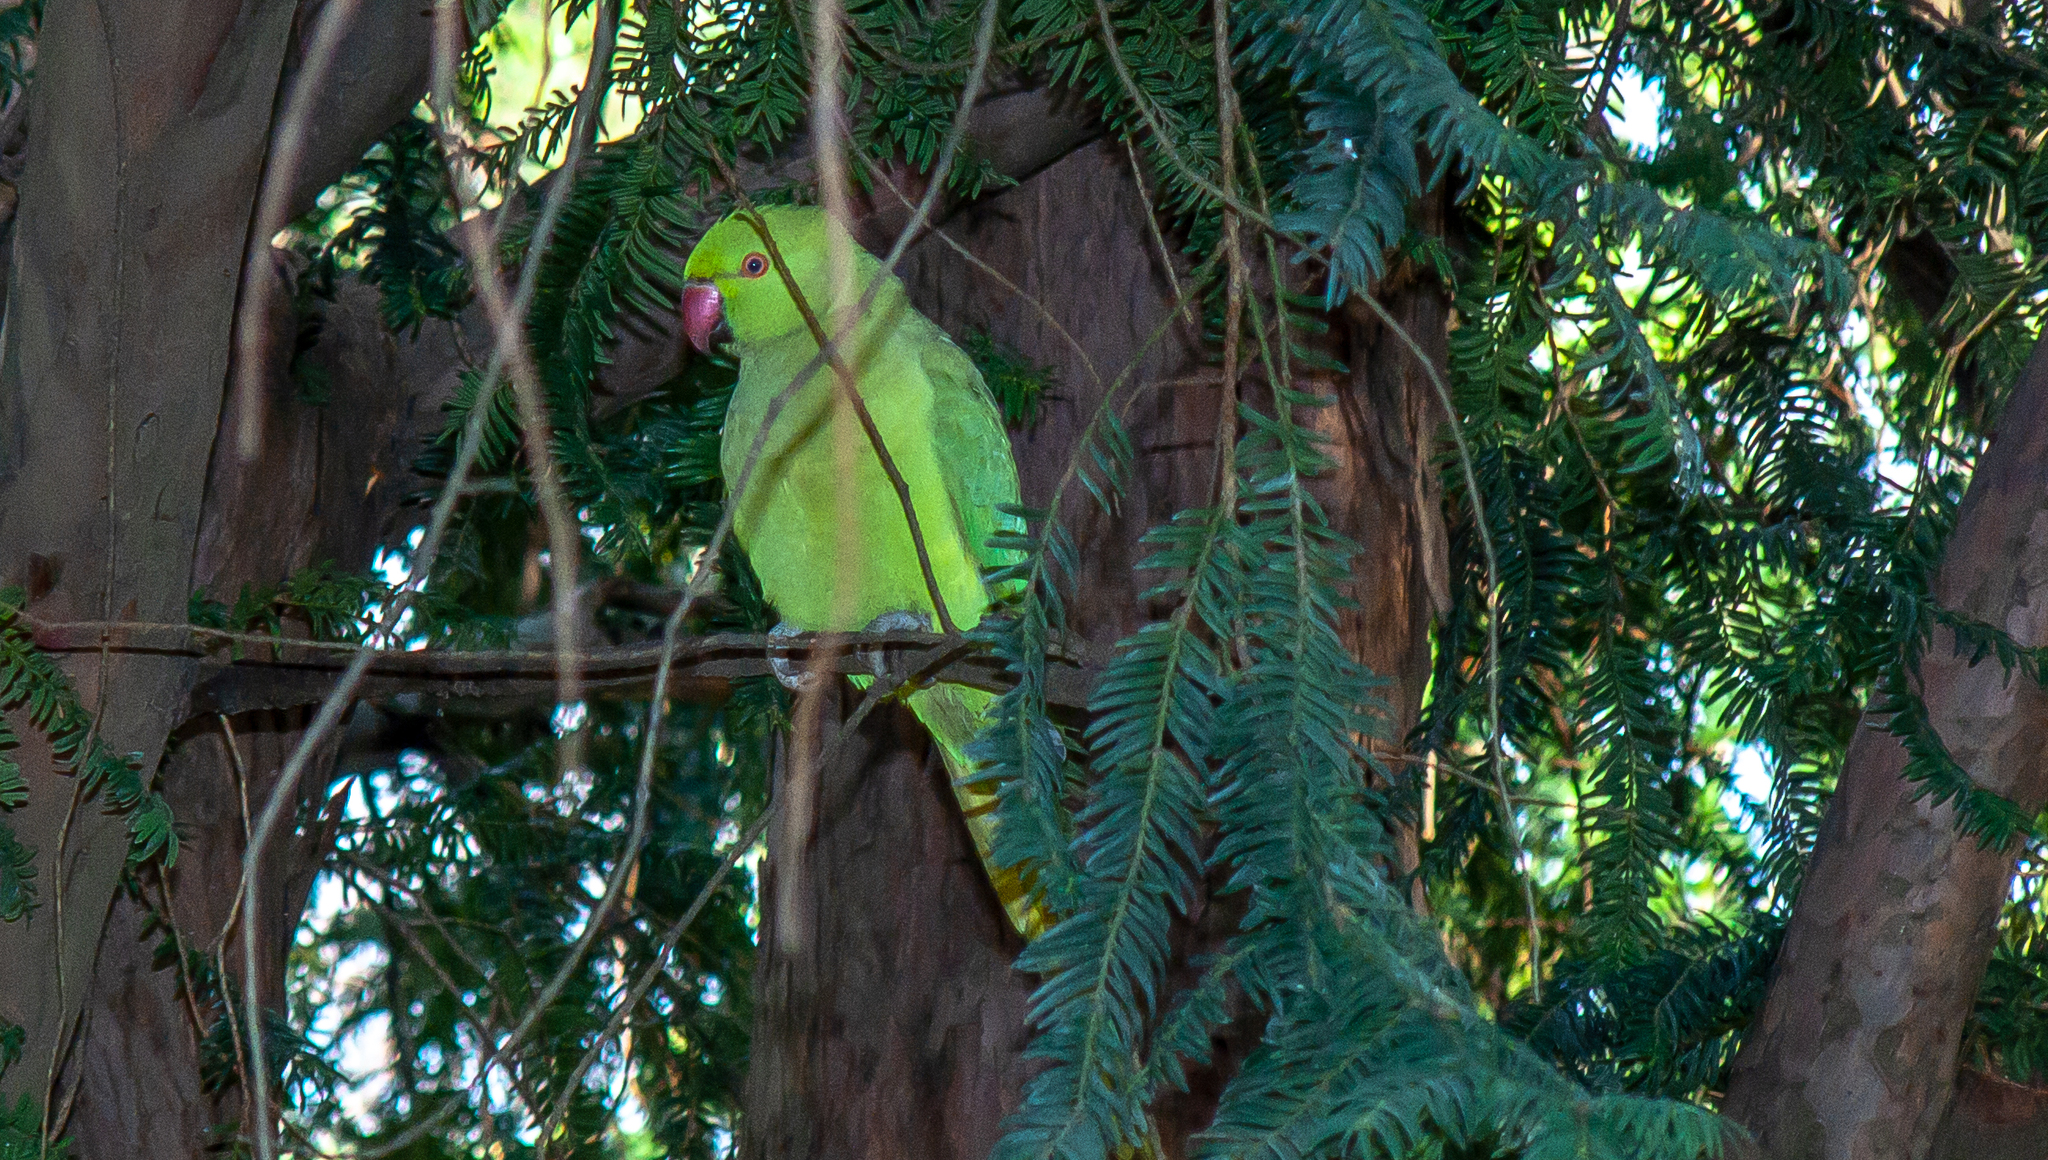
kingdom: Animalia
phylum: Chordata
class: Aves
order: Psittaciformes
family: Psittacidae
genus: Psittacula
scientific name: Psittacula krameri
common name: Rose-ringed parakeet
